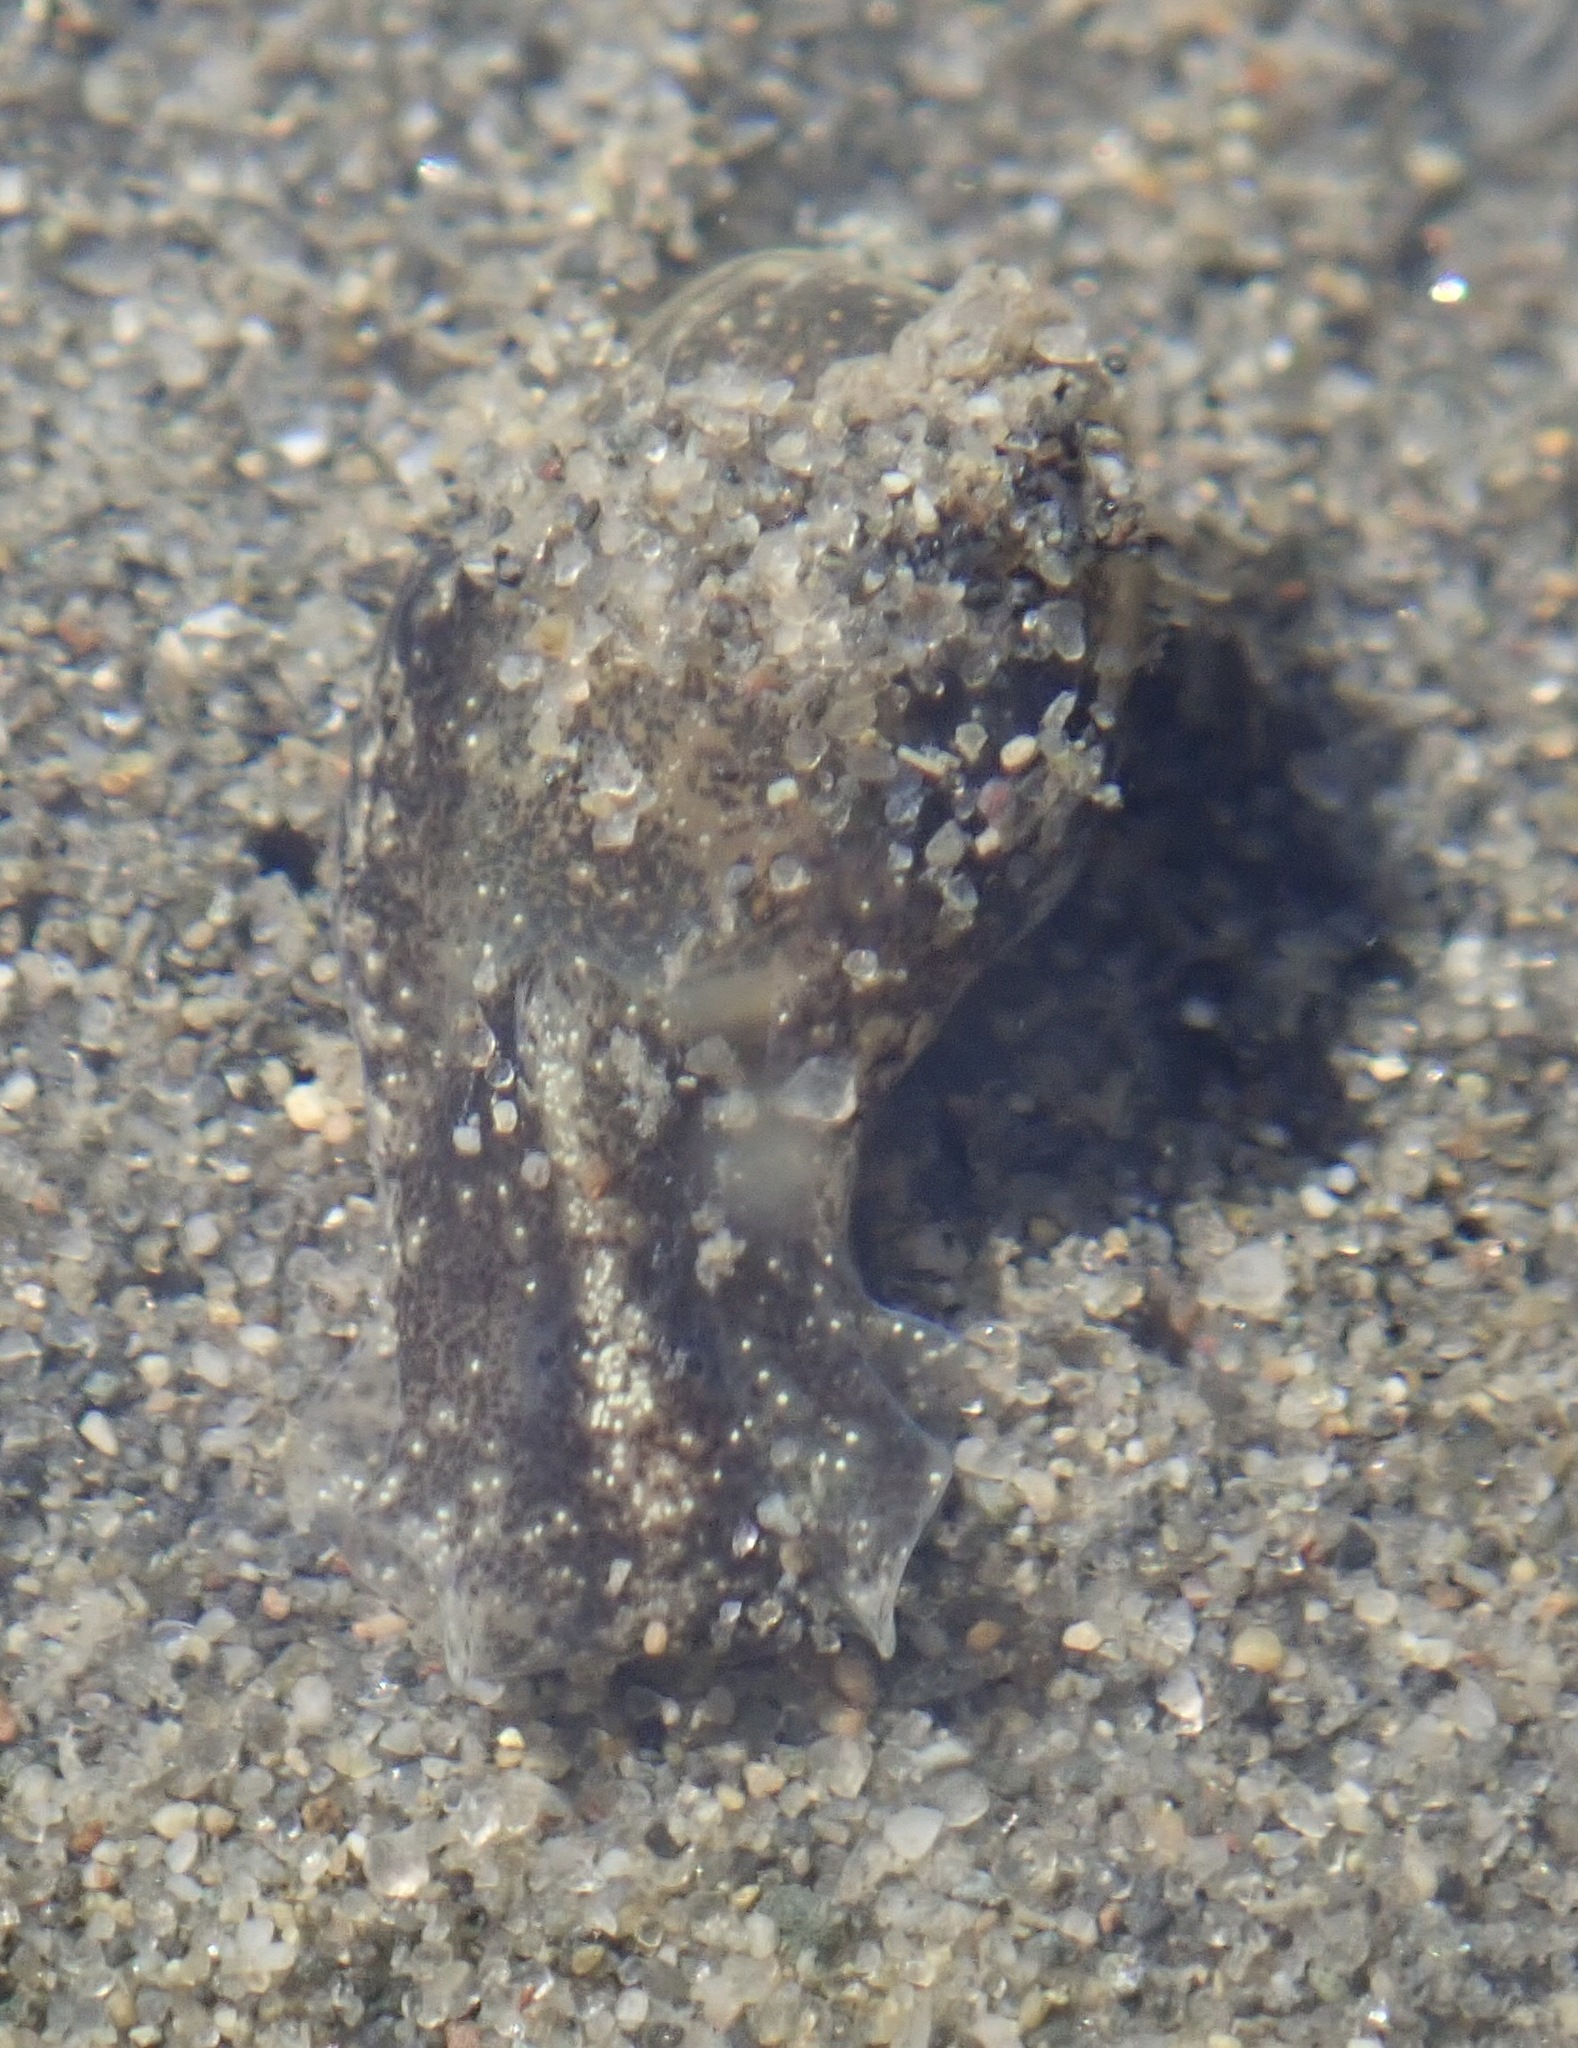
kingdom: Animalia
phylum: Mollusca
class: Gastropoda
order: Cephalaspidea
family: Haminoeidae
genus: Haminoea
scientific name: Haminoea vesicula
